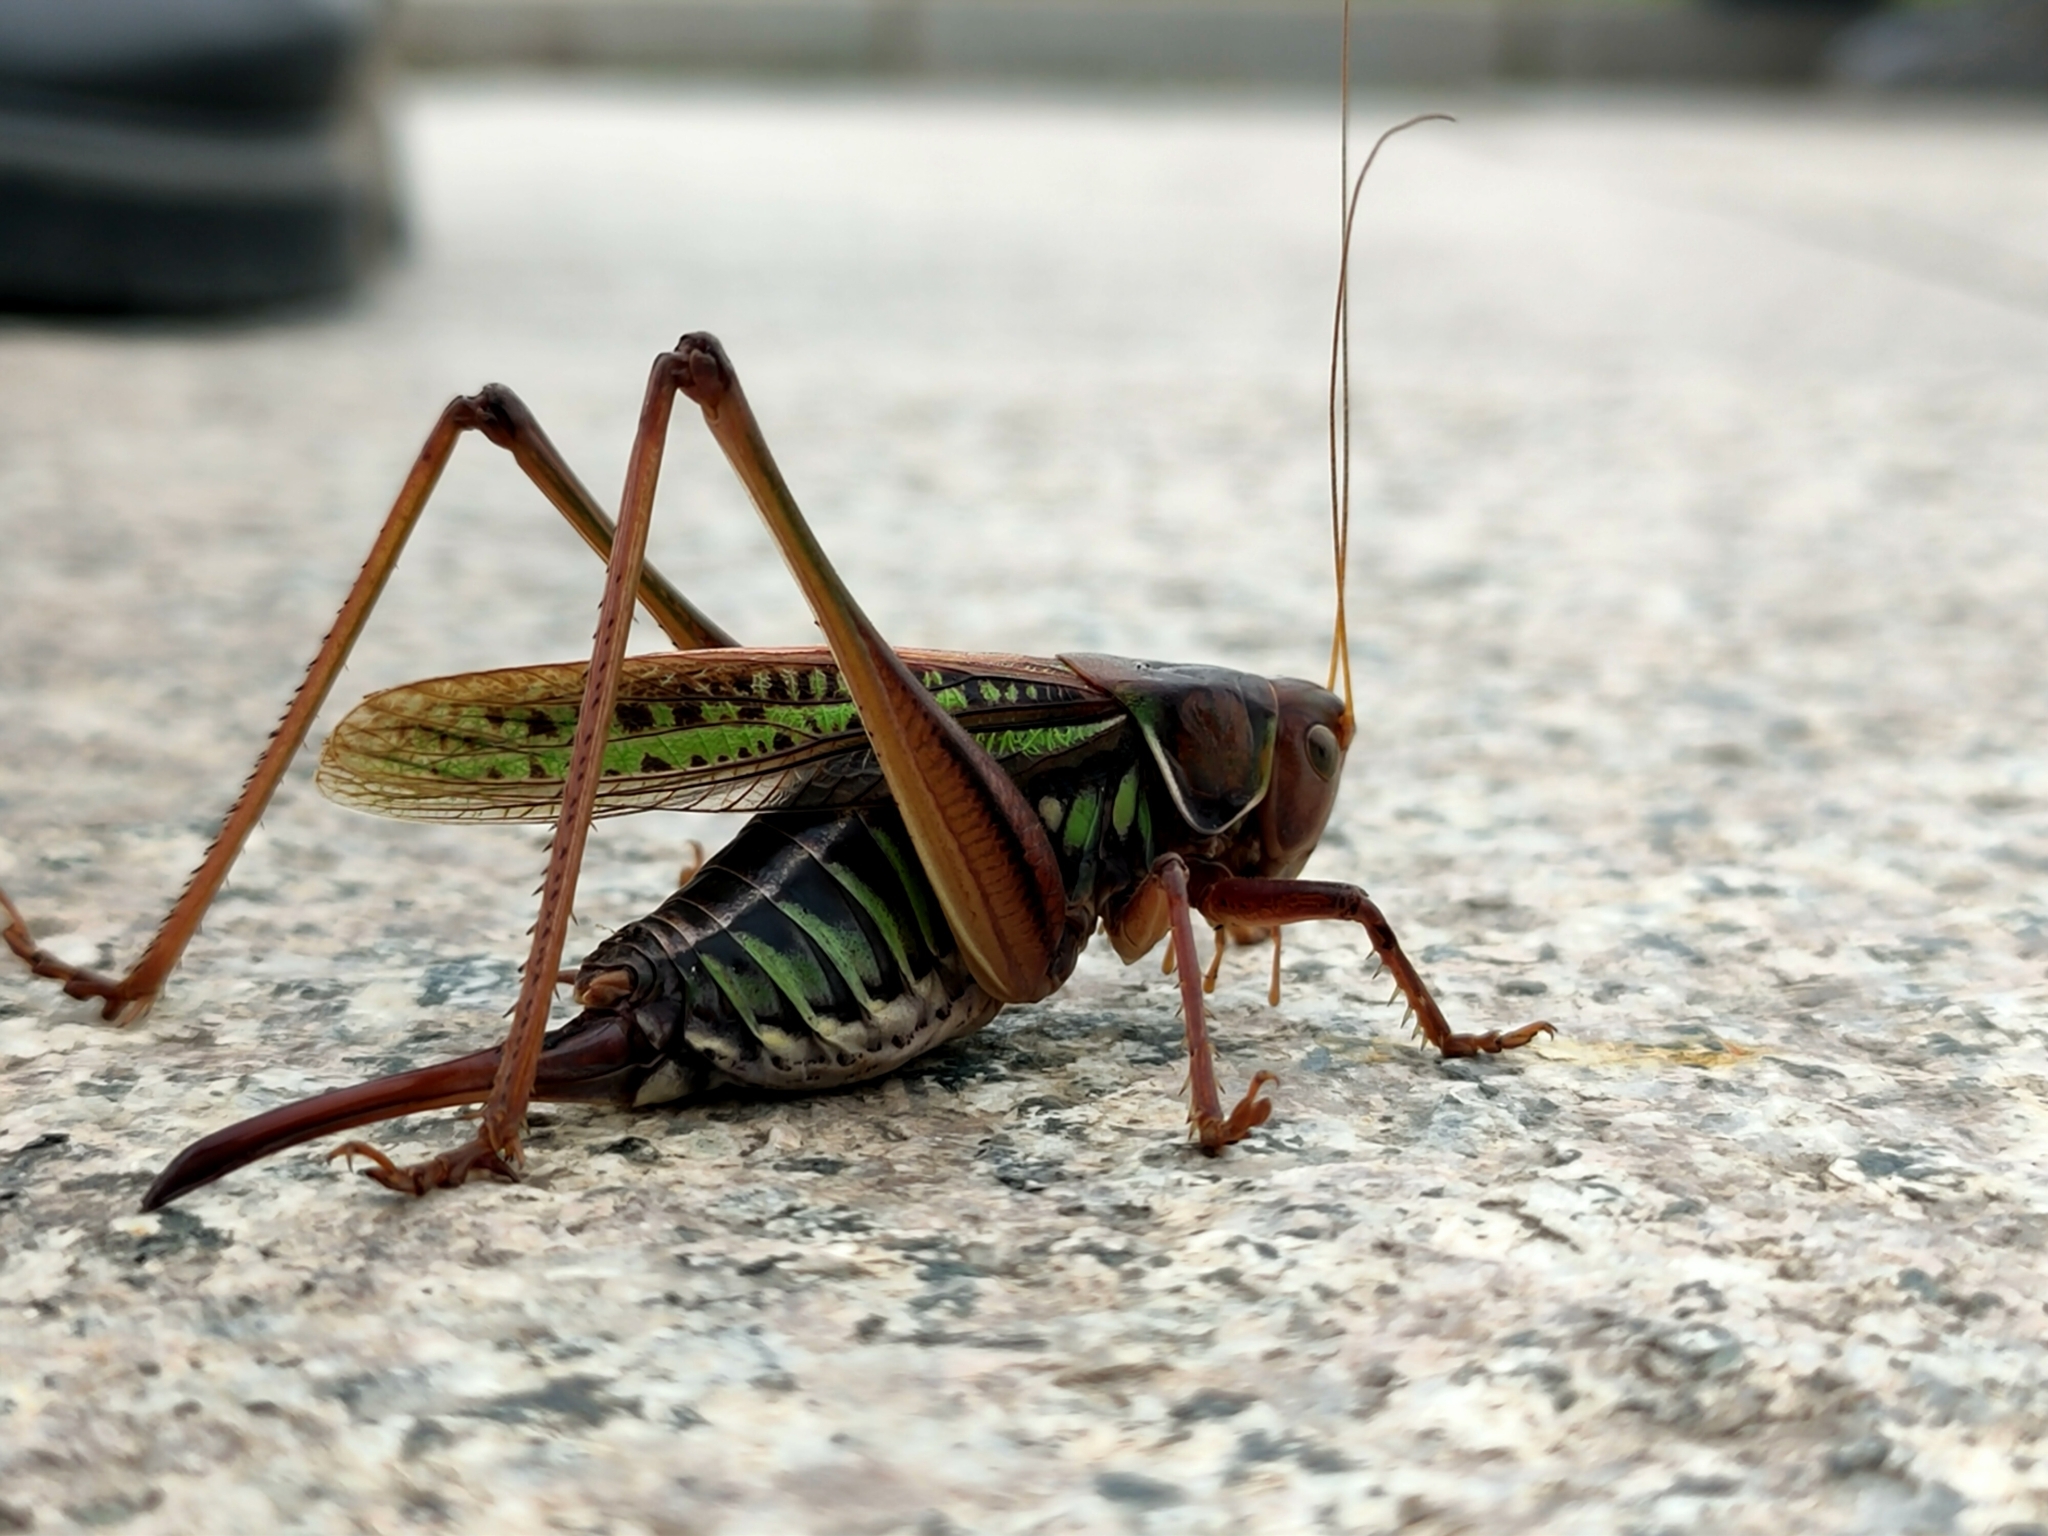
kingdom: Animalia
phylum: Arthropoda
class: Insecta
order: Orthoptera
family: Tettigoniidae
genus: Gampsocleis
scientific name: Gampsocleis sedakovii
